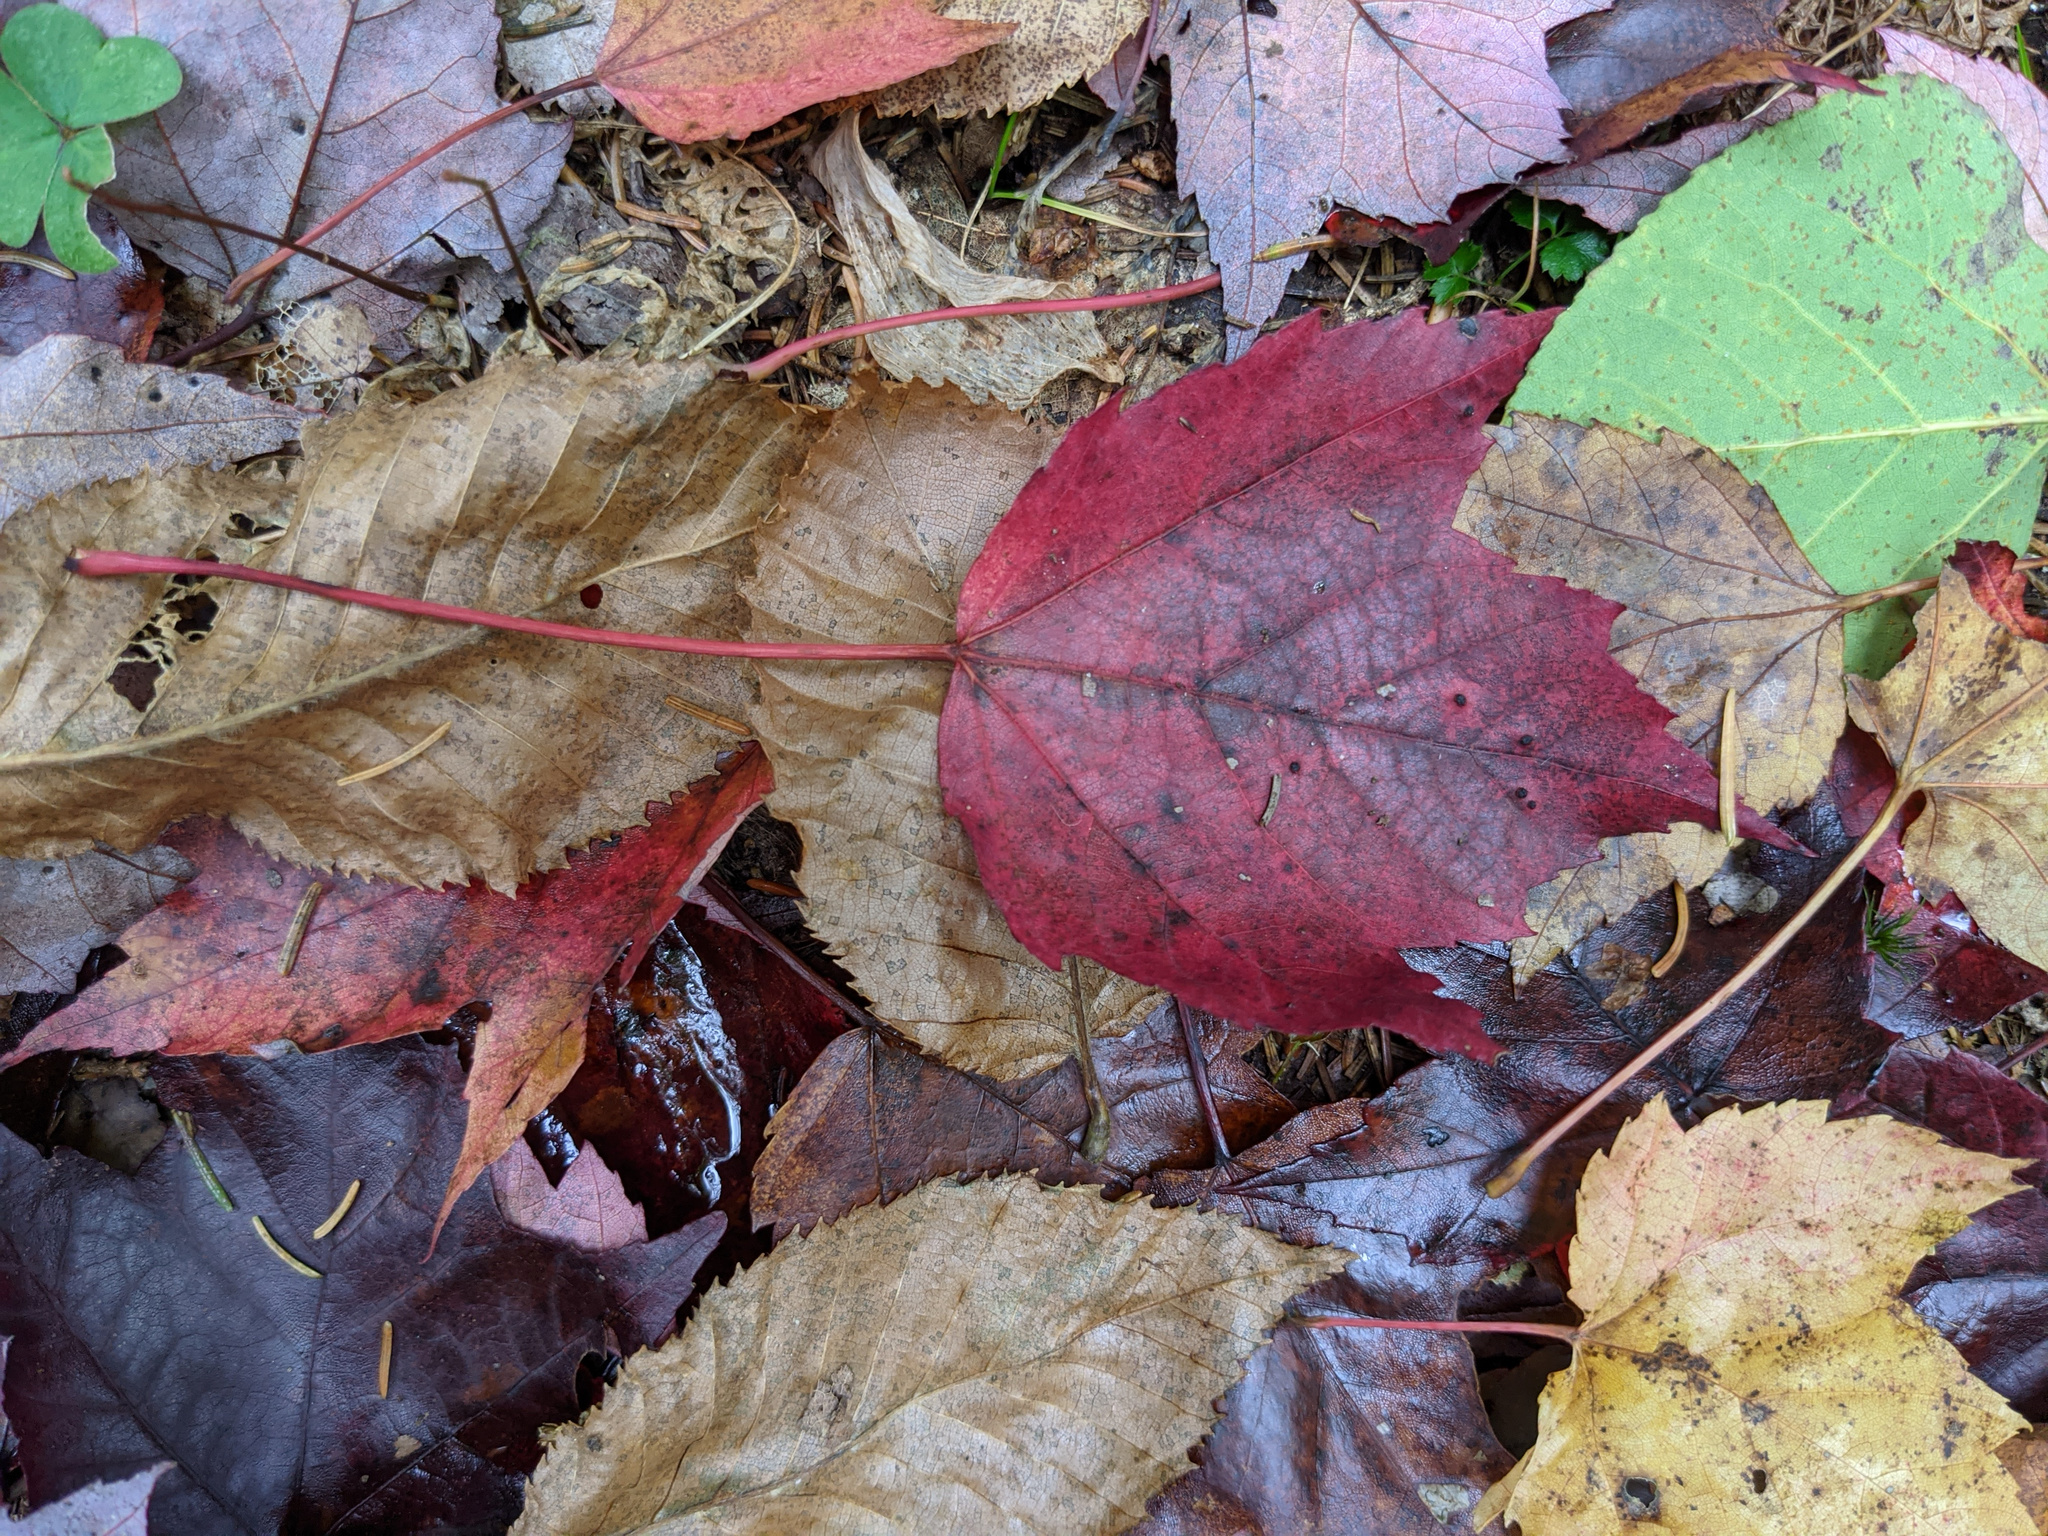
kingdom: Plantae
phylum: Tracheophyta
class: Magnoliopsida
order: Sapindales
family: Sapindaceae
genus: Acer
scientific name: Acer rubrum
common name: Red maple
